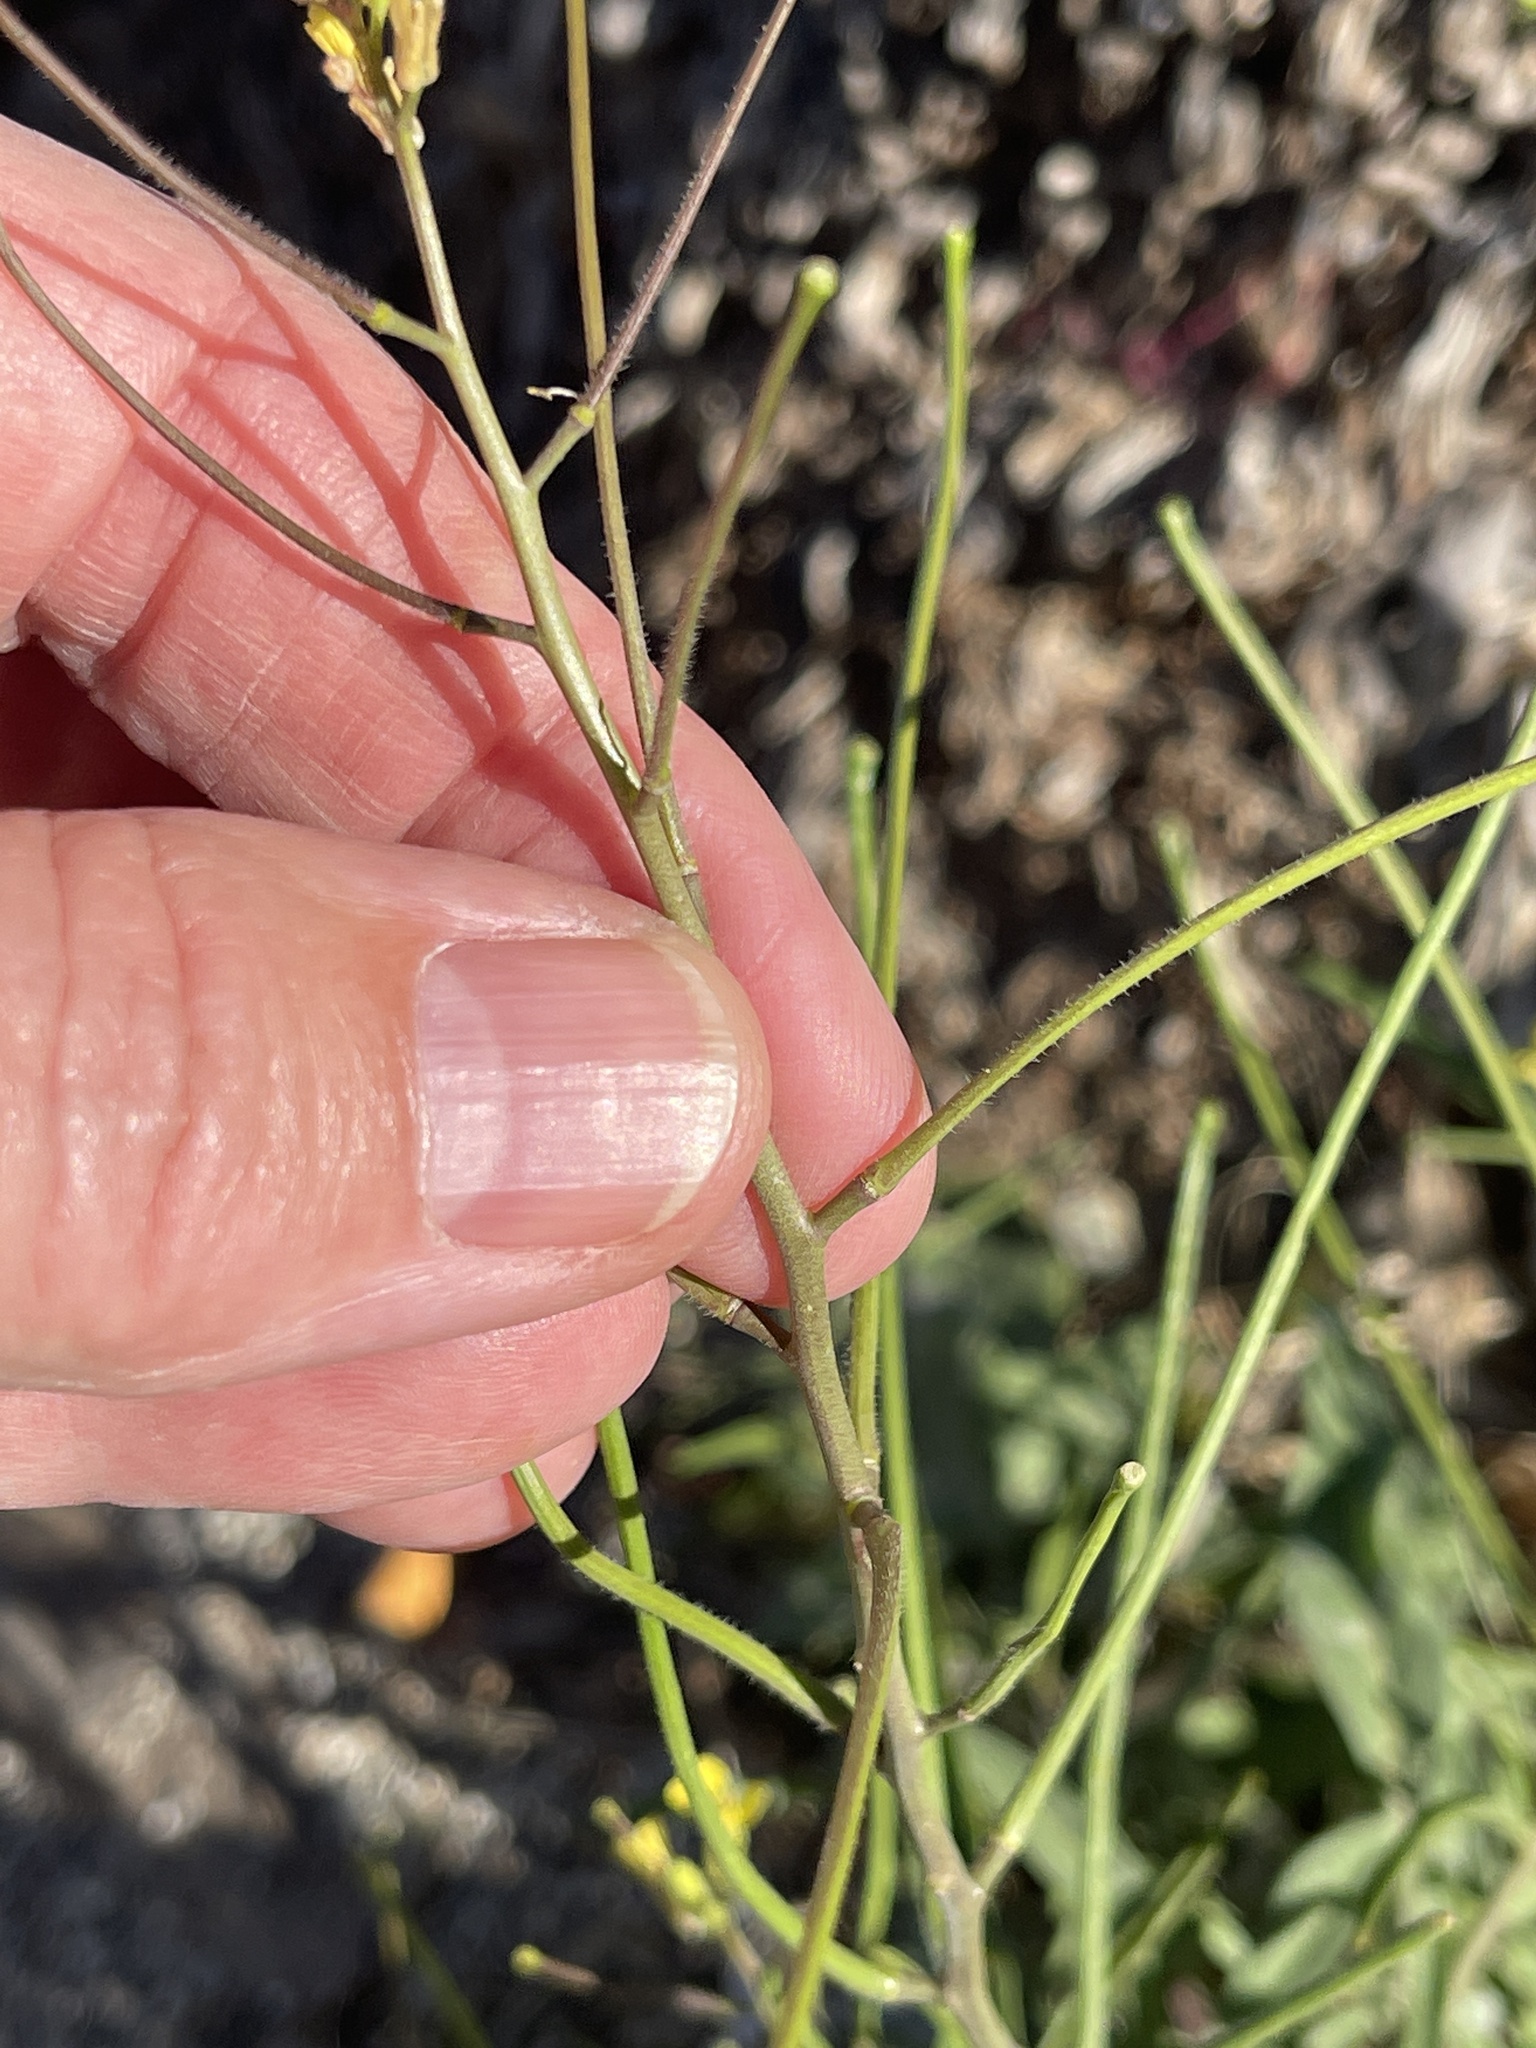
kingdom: Plantae
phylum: Tracheophyta
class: Magnoliopsida
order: Brassicales
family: Brassicaceae
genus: Sisymbrium
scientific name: Sisymbrium orientale
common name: Eastern rocket
